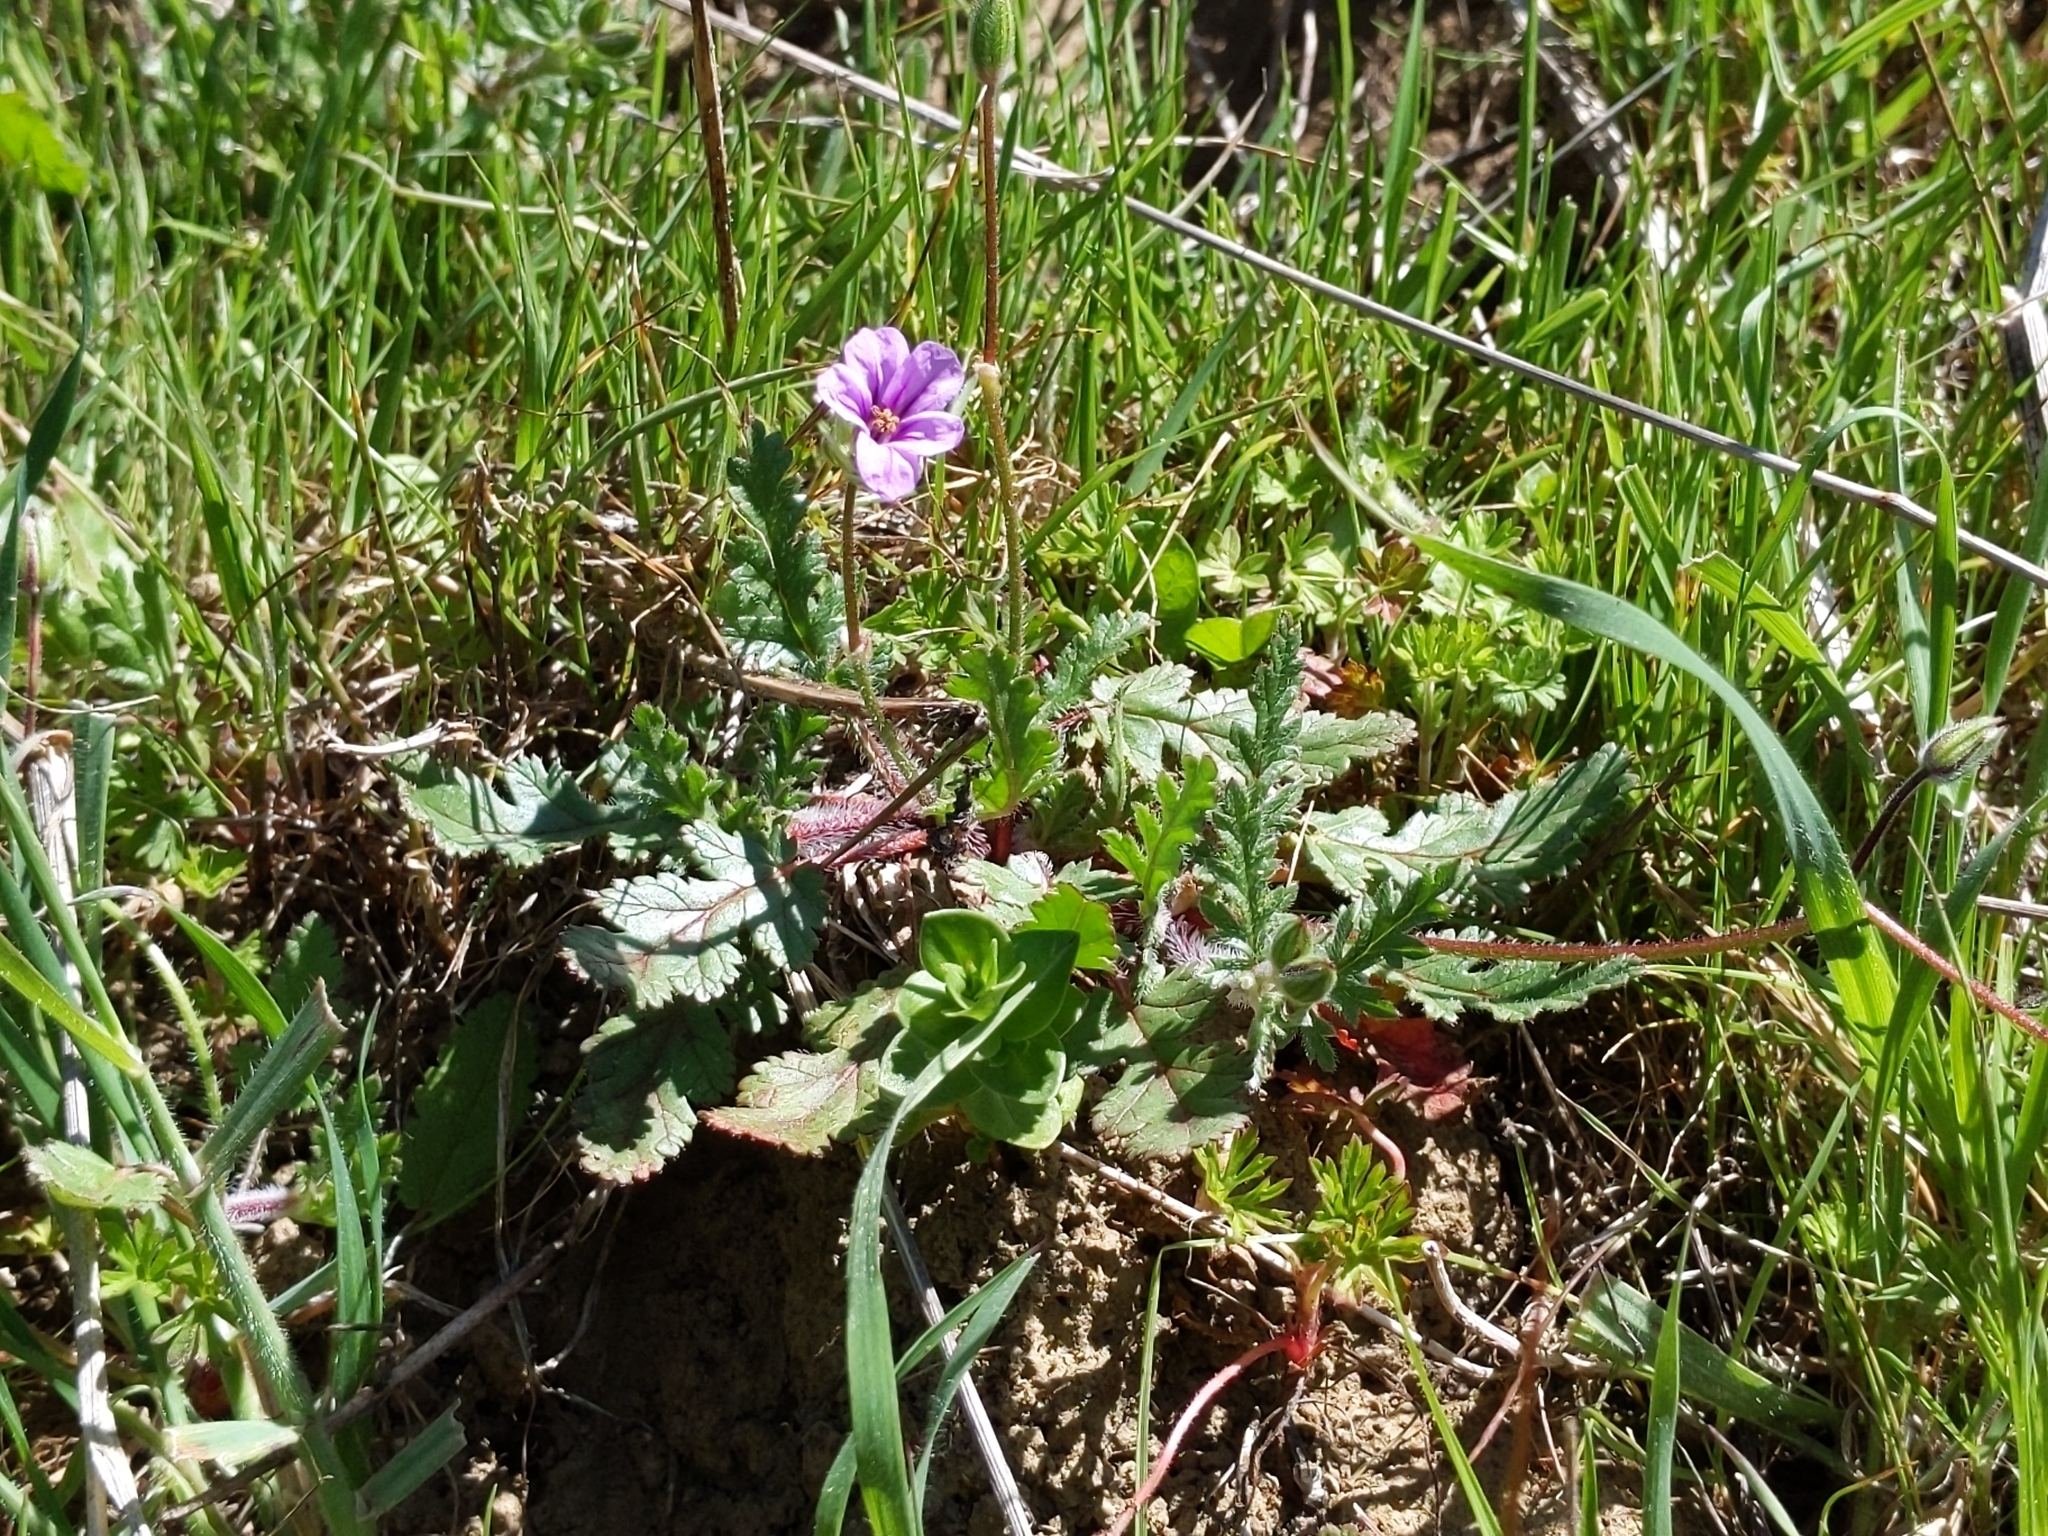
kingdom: Plantae
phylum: Tracheophyta
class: Magnoliopsida
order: Ranunculales
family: Papaveraceae
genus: Eschscholzia
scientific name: Eschscholzia californica
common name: California poppy
